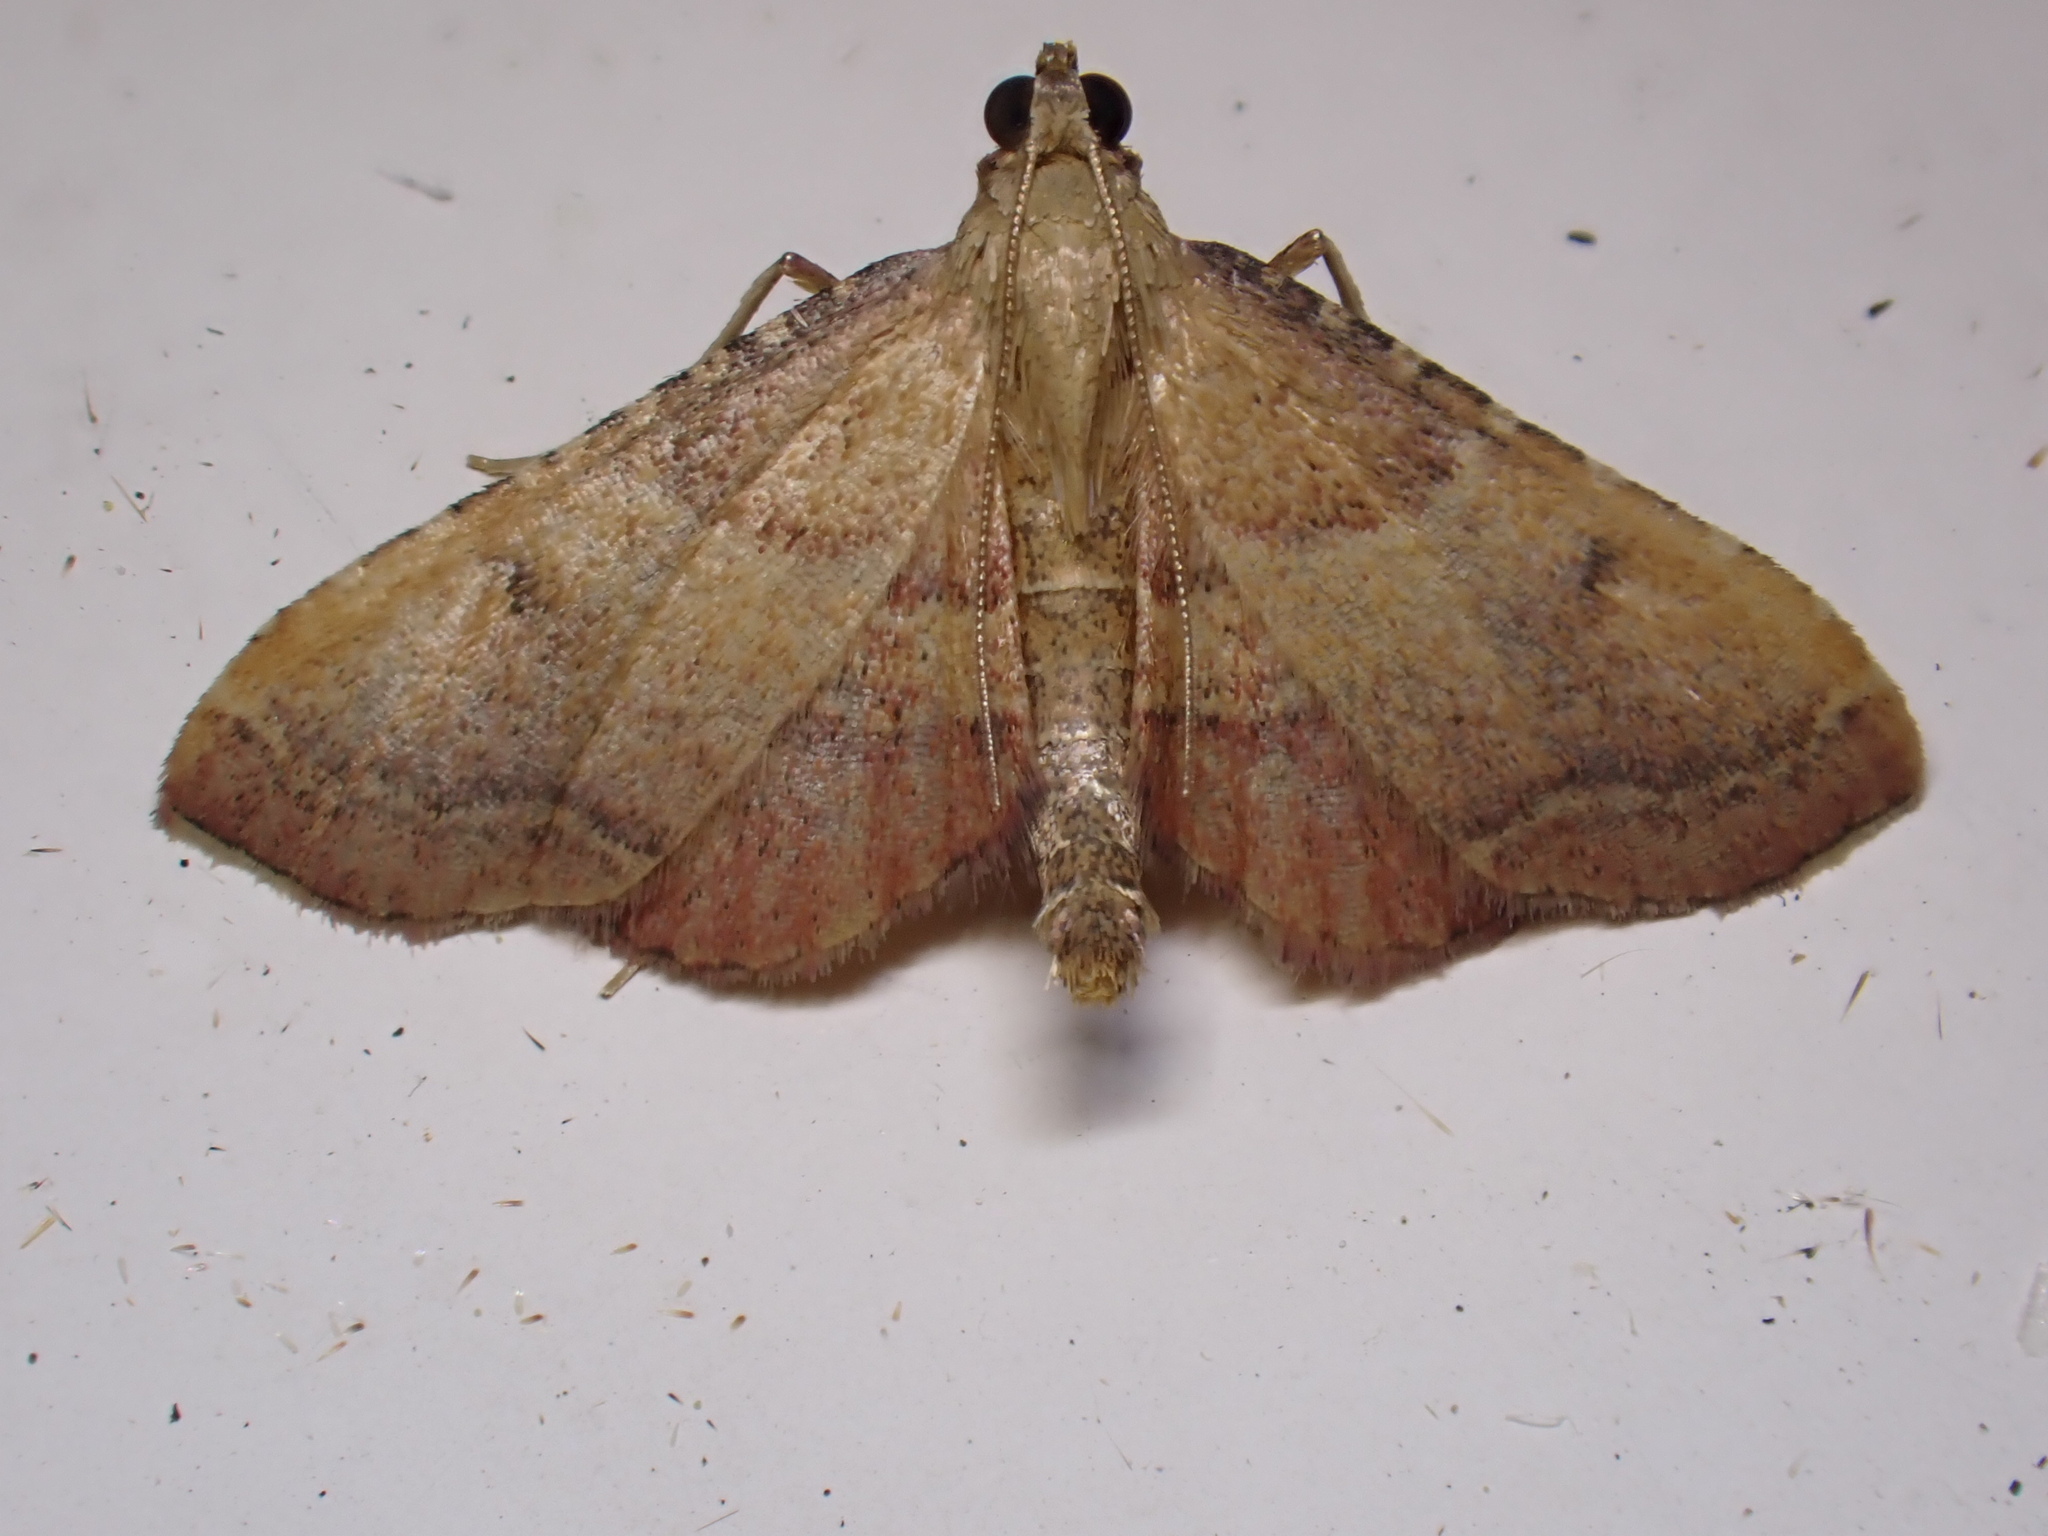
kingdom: Animalia
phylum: Arthropoda
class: Insecta
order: Lepidoptera
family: Pyralidae
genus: Endotricha
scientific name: Endotricha flammealis
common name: Rosy tabby
